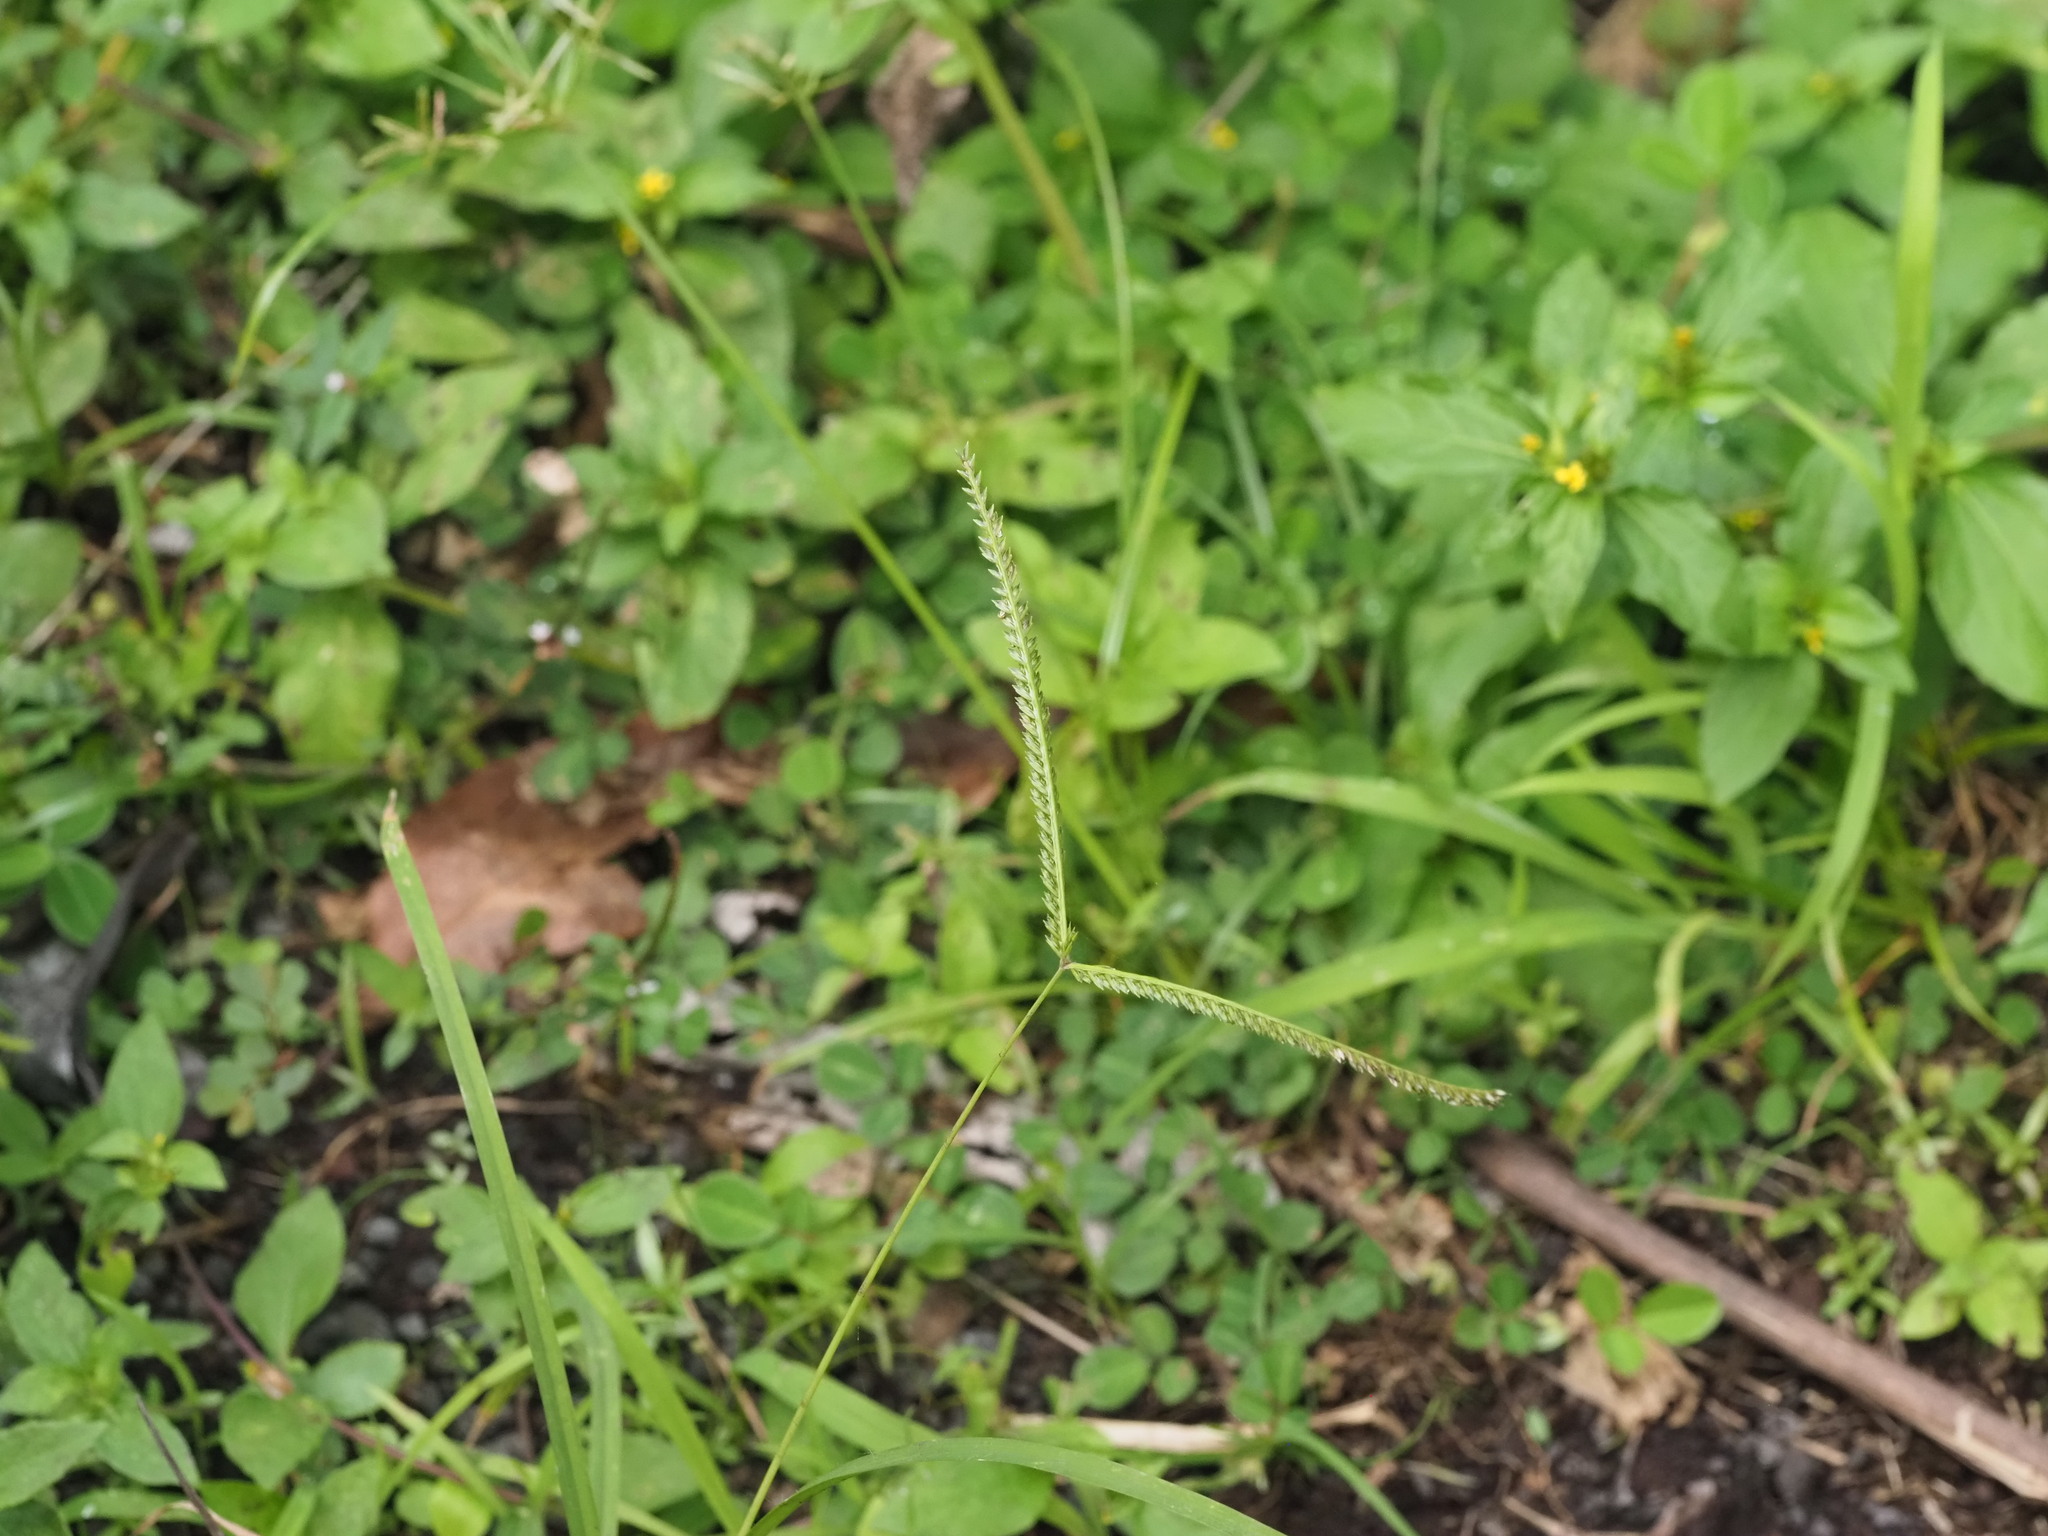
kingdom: Plantae
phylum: Tracheophyta
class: Liliopsida
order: Poales
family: Poaceae
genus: Eleusine
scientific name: Eleusine indica
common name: Yard-grass
